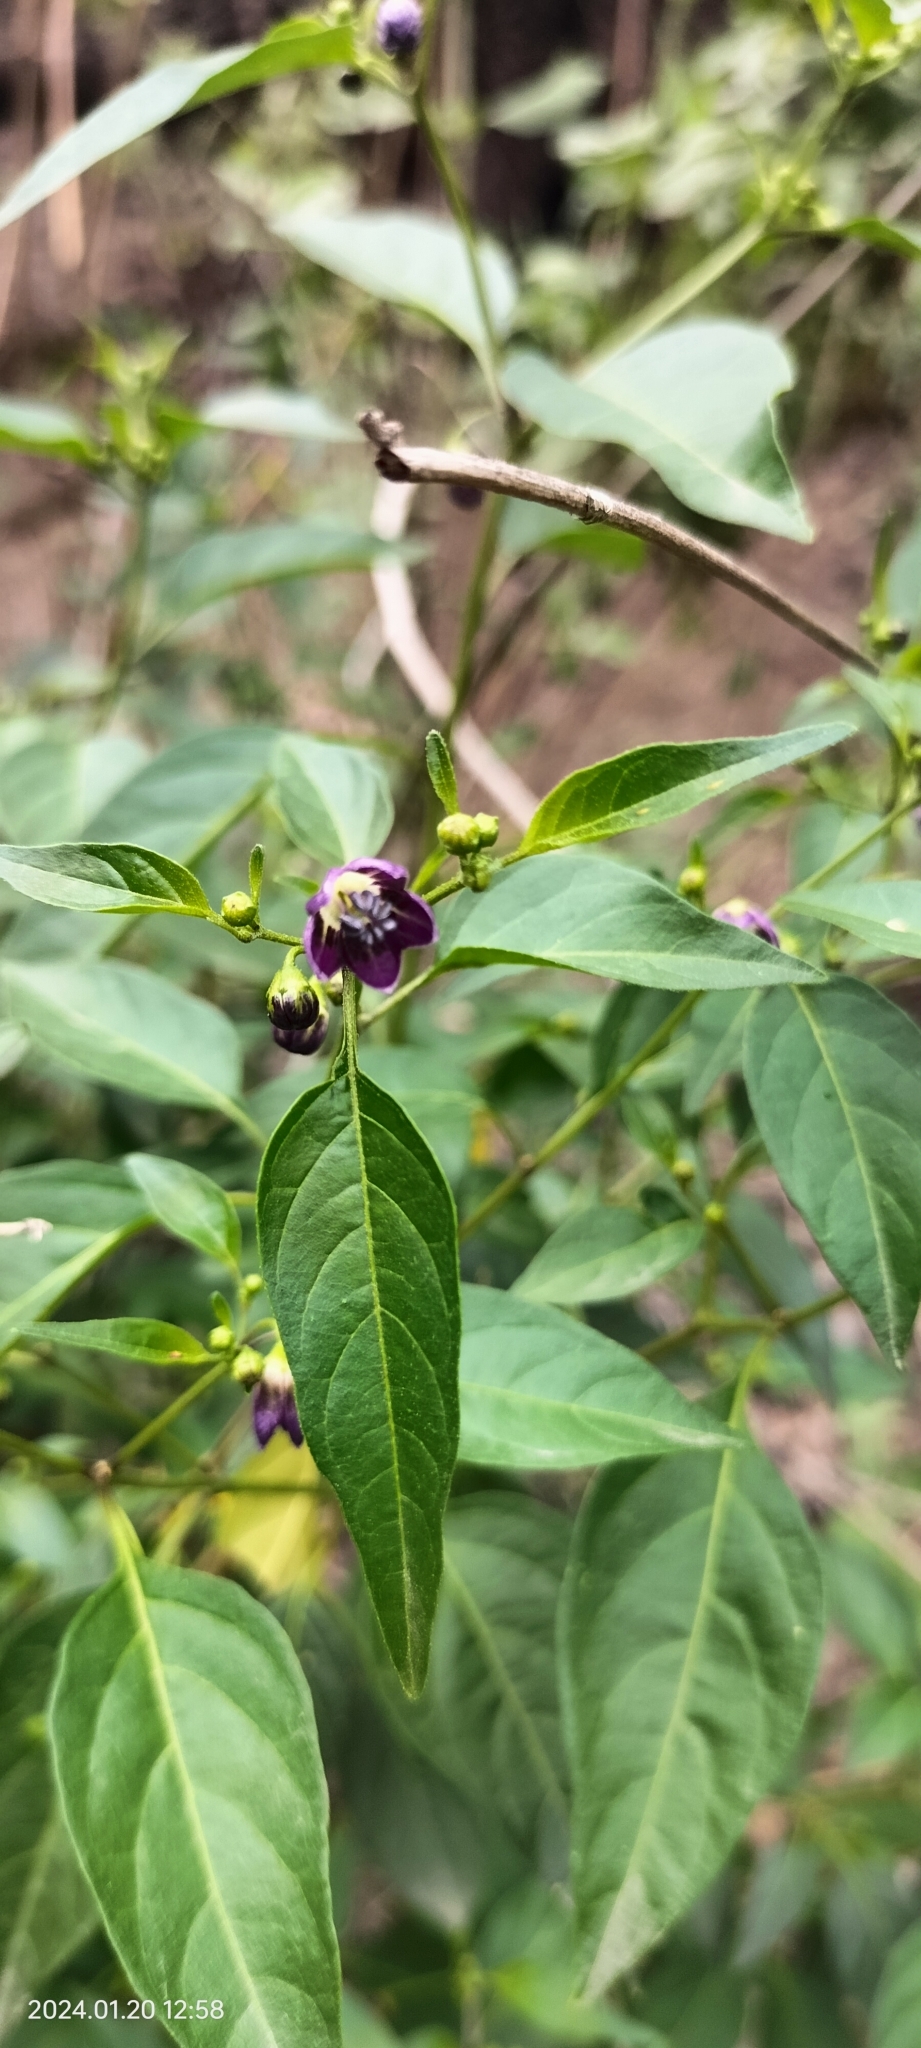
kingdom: Plantae
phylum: Tracheophyta
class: Magnoliopsida
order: Solanales
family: Solanaceae
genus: Capsicum
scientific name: Capsicum tovarii
